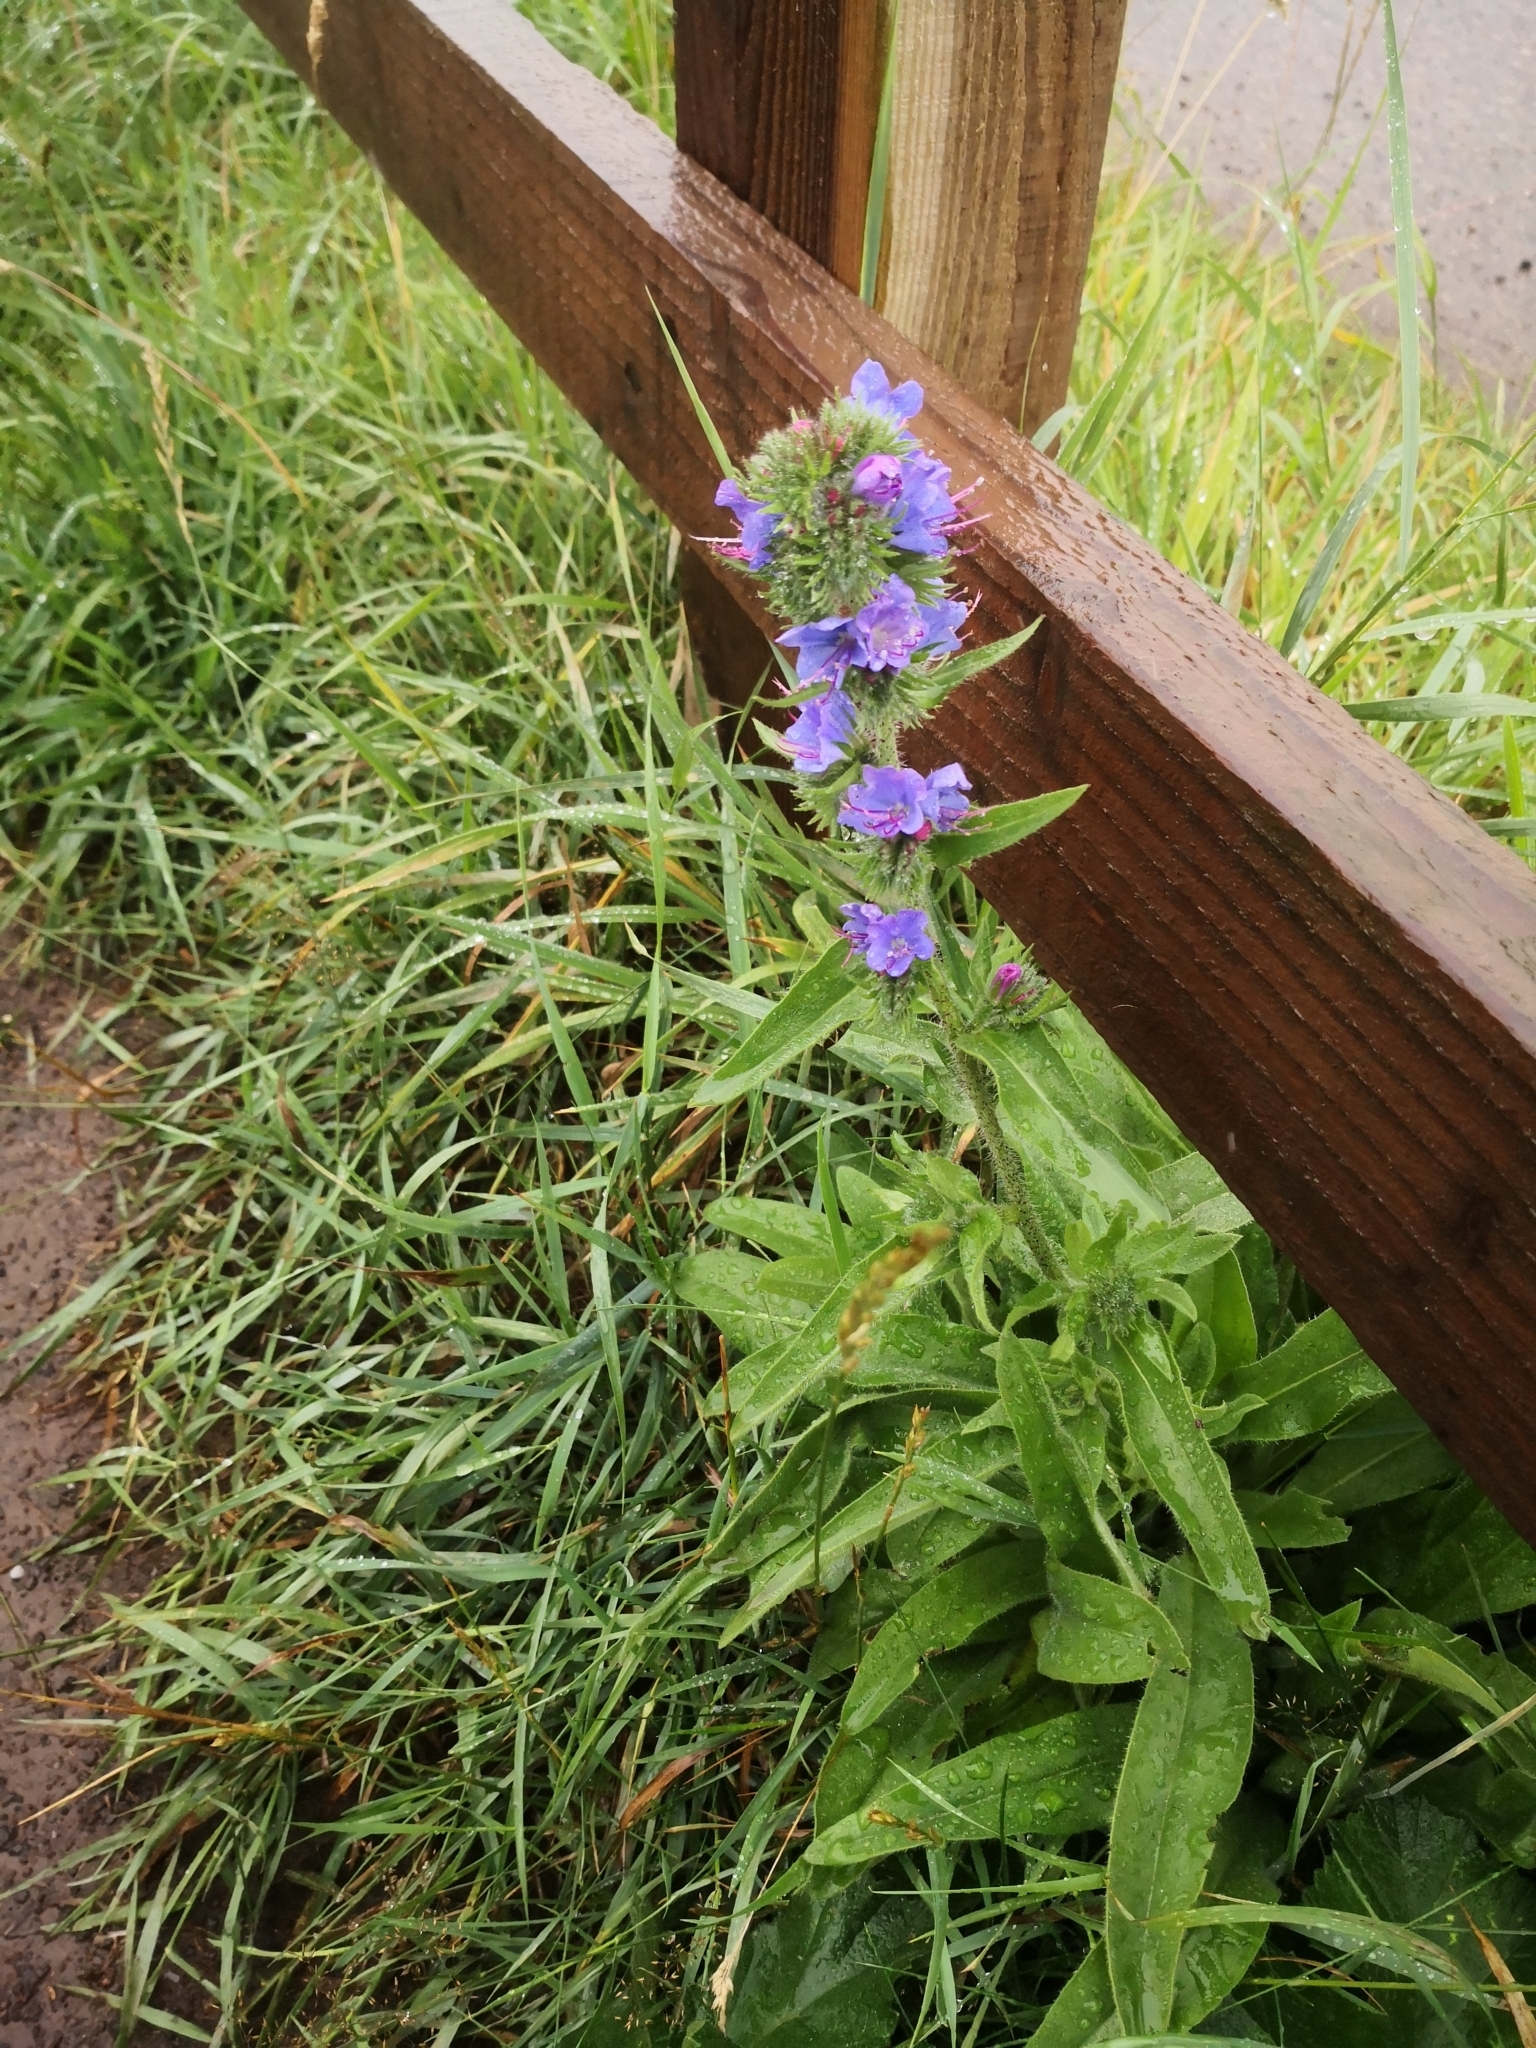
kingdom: Plantae
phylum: Tracheophyta
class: Magnoliopsida
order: Boraginales
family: Boraginaceae
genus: Echium
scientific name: Echium vulgare
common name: Common viper's bugloss
